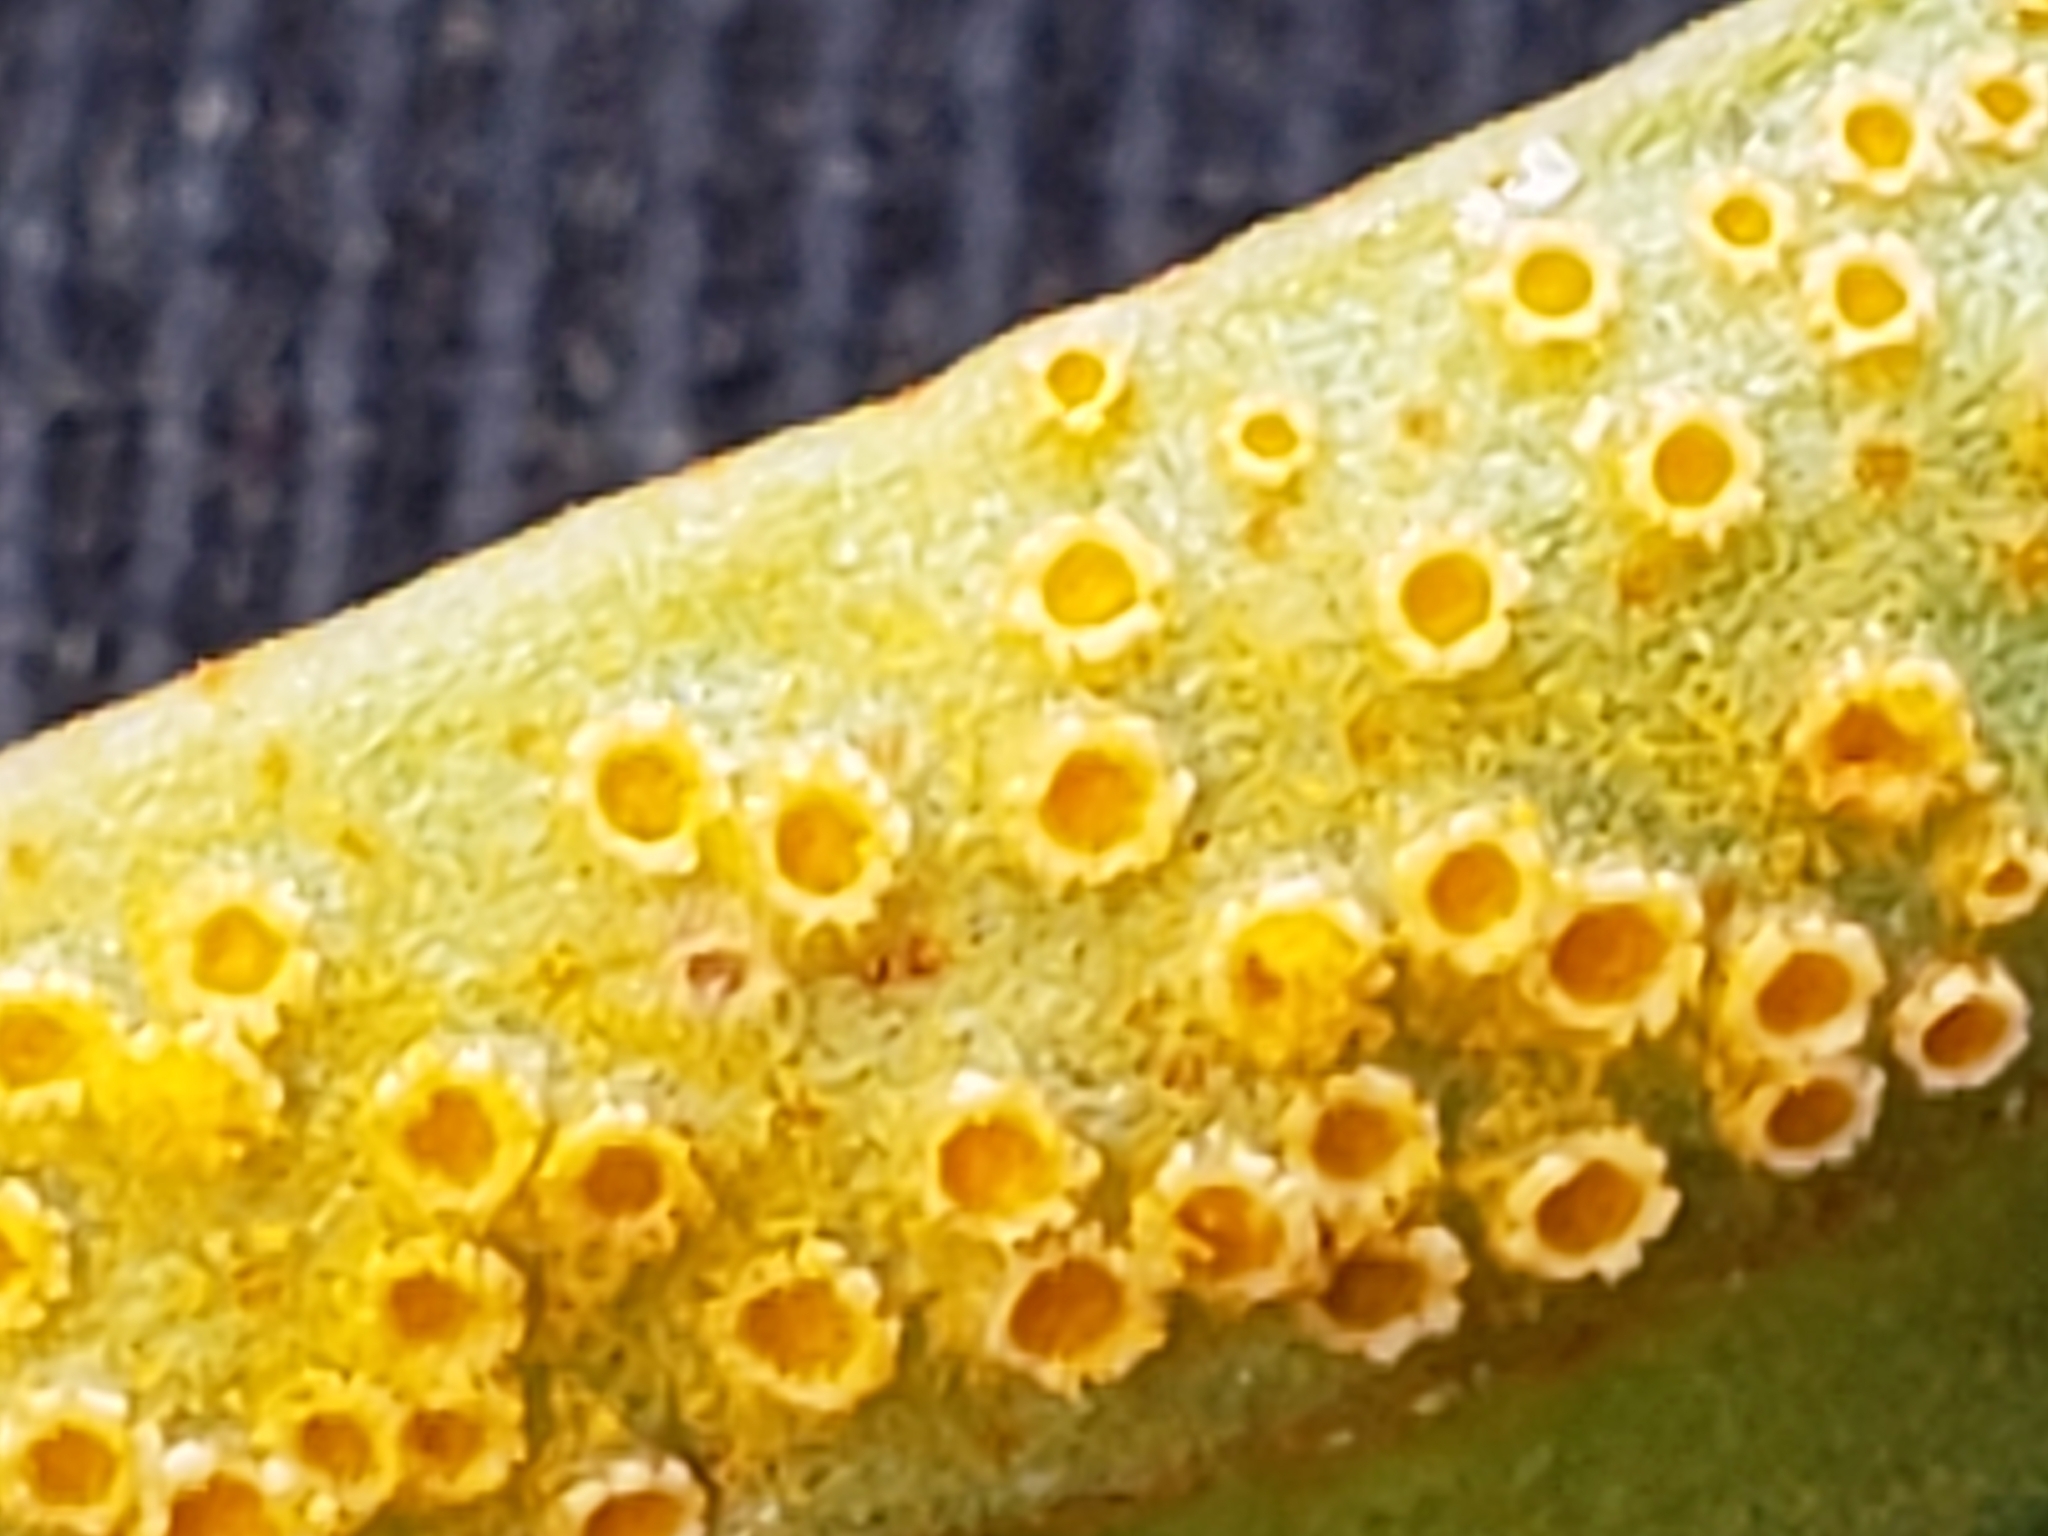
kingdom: Fungi
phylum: Basidiomycota
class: Pucciniomycetes
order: Pucciniales
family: Pucciniaceae
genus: Puccinia
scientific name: Puccinia mariae-wilsoniae
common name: Spring beauty rust
